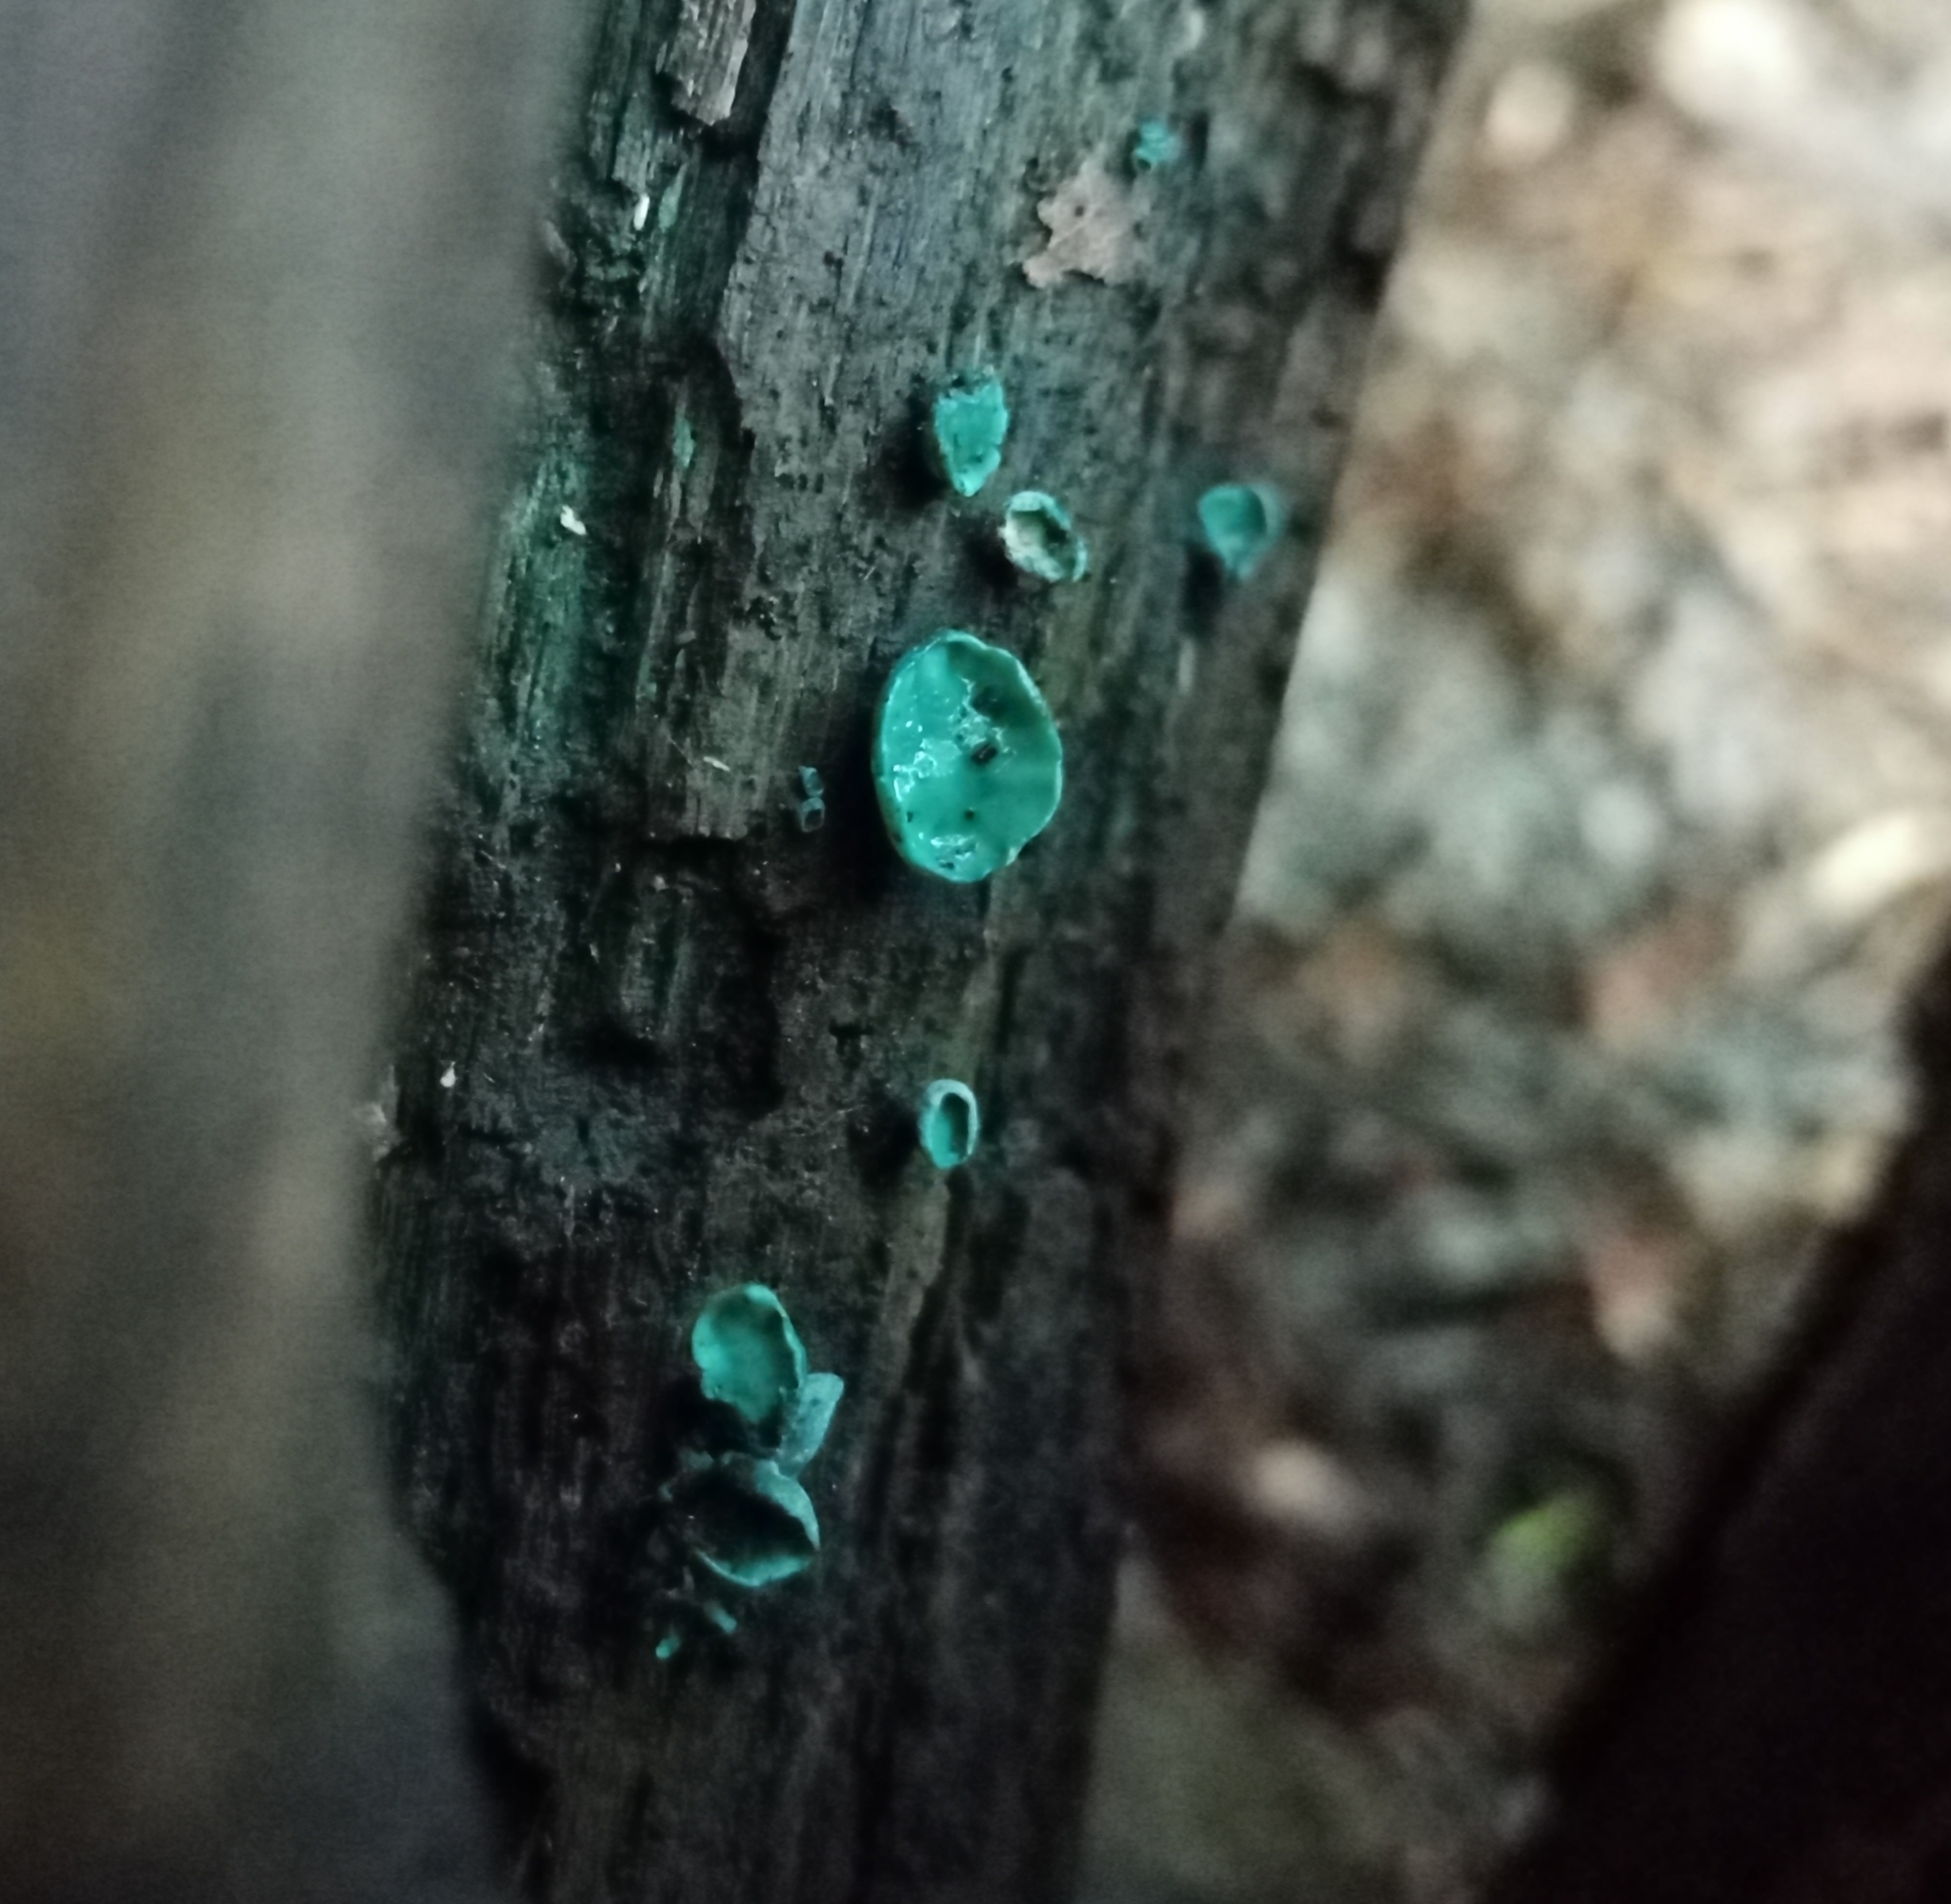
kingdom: Fungi
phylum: Ascomycota
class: Leotiomycetes
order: Helotiales
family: Chlorociboriaceae
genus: Chlorociboria
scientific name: Chlorociboria aeruginascens
